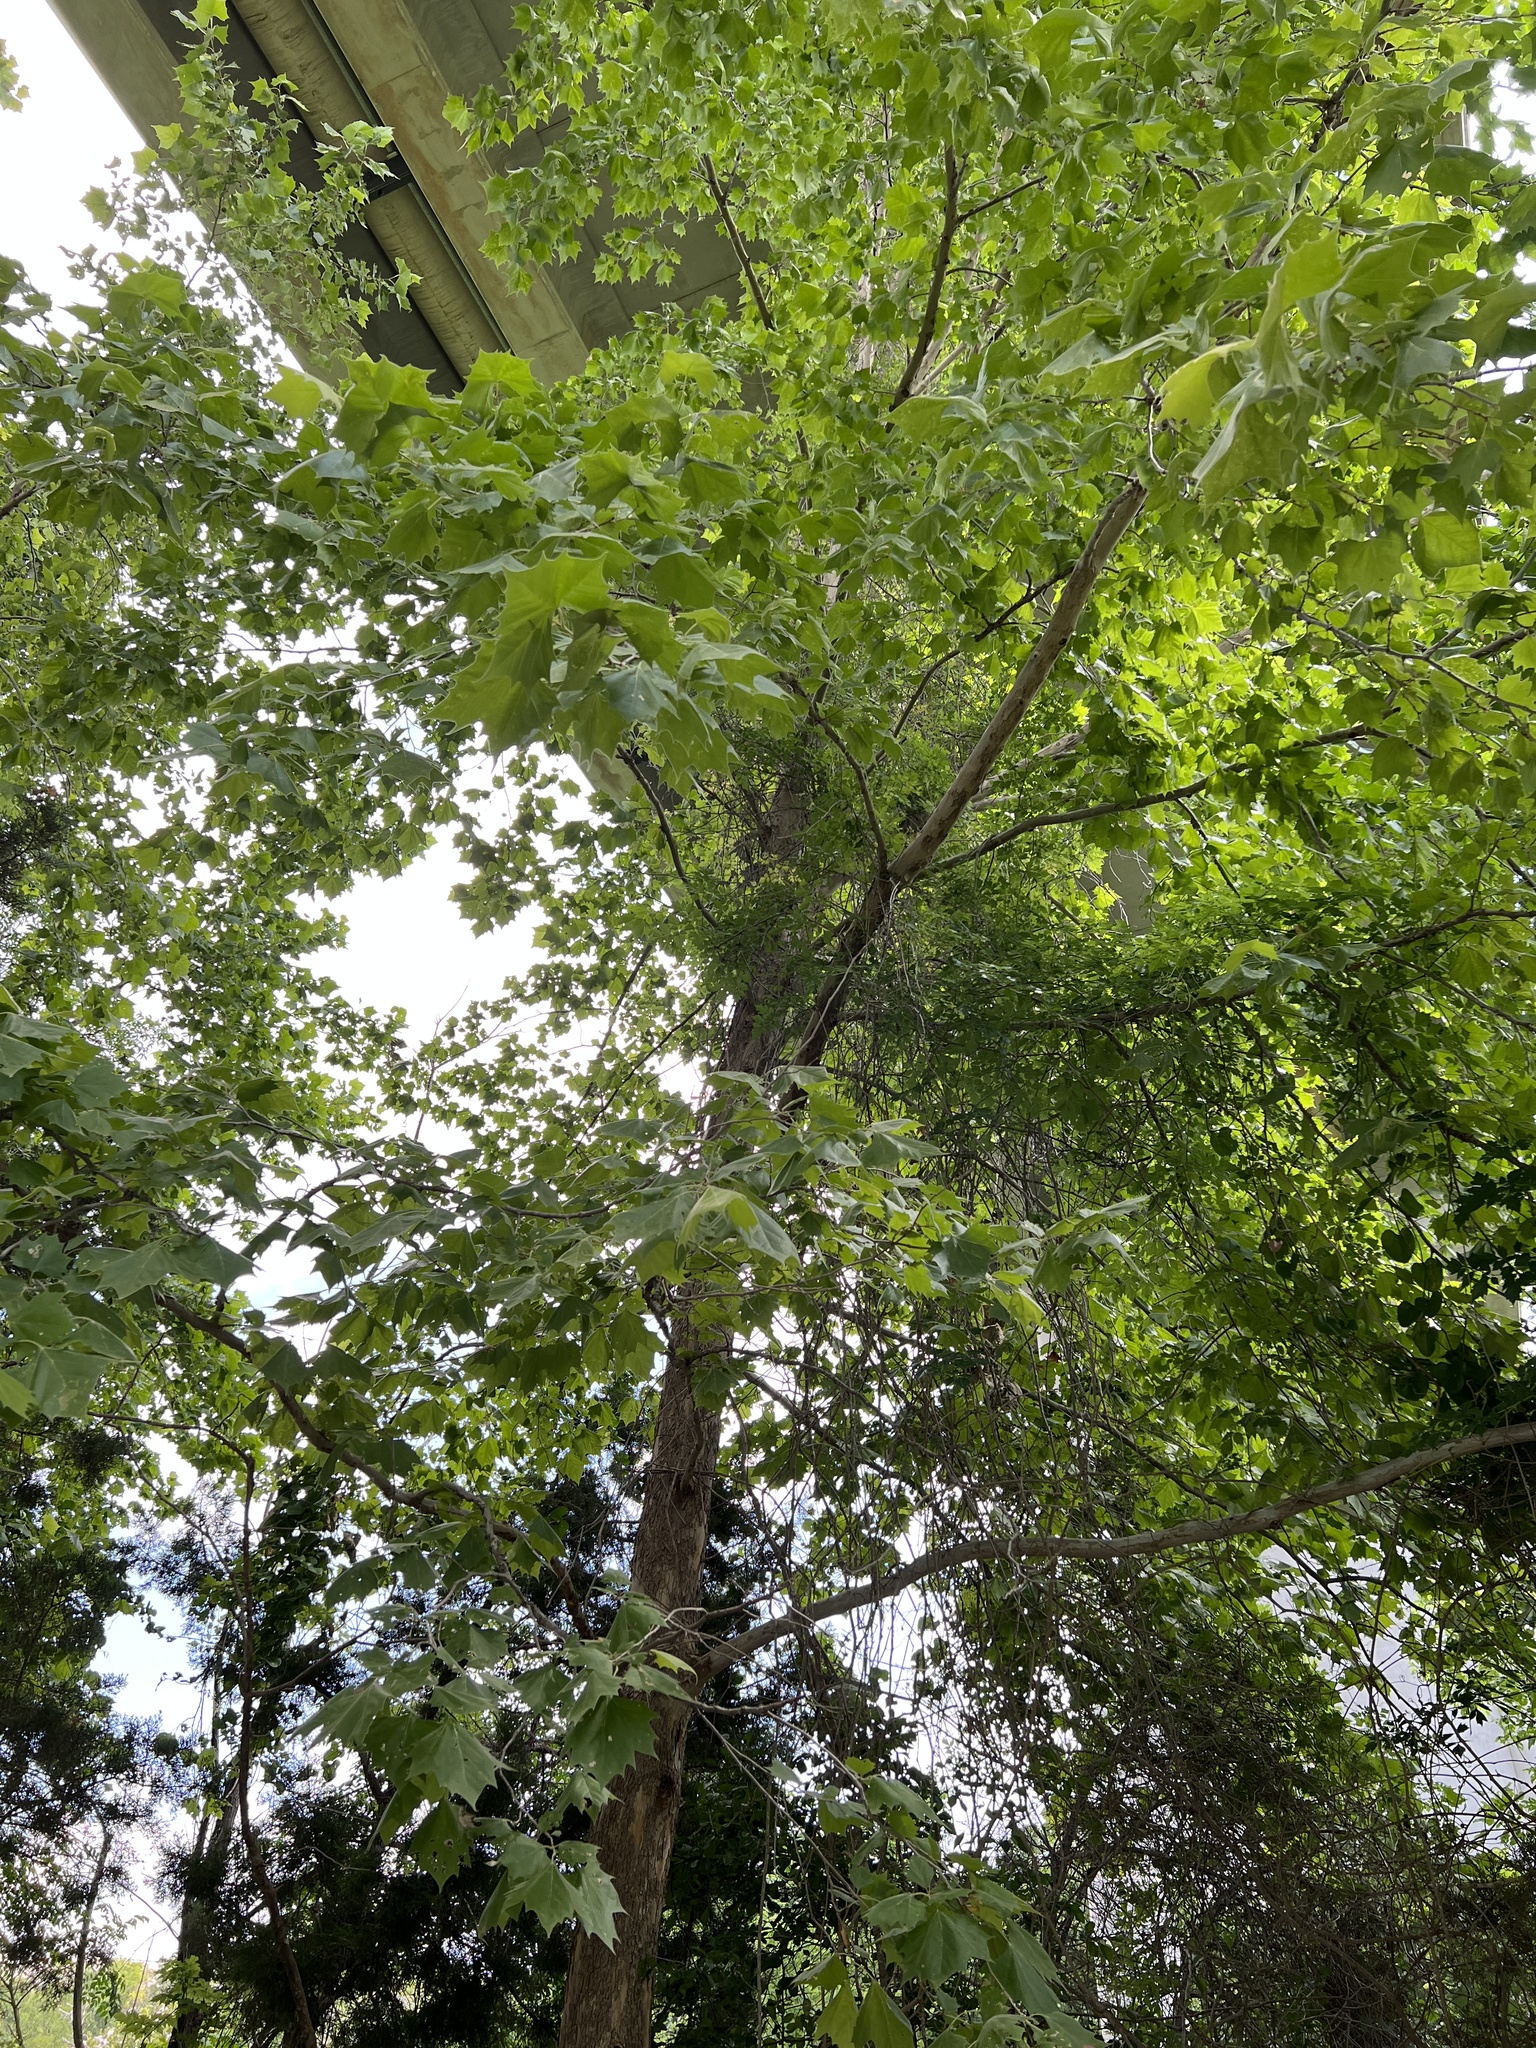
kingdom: Plantae
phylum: Tracheophyta
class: Magnoliopsida
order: Proteales
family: Platanaceae
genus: Platanus
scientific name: Platanus occidentalis
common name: American sycamore
